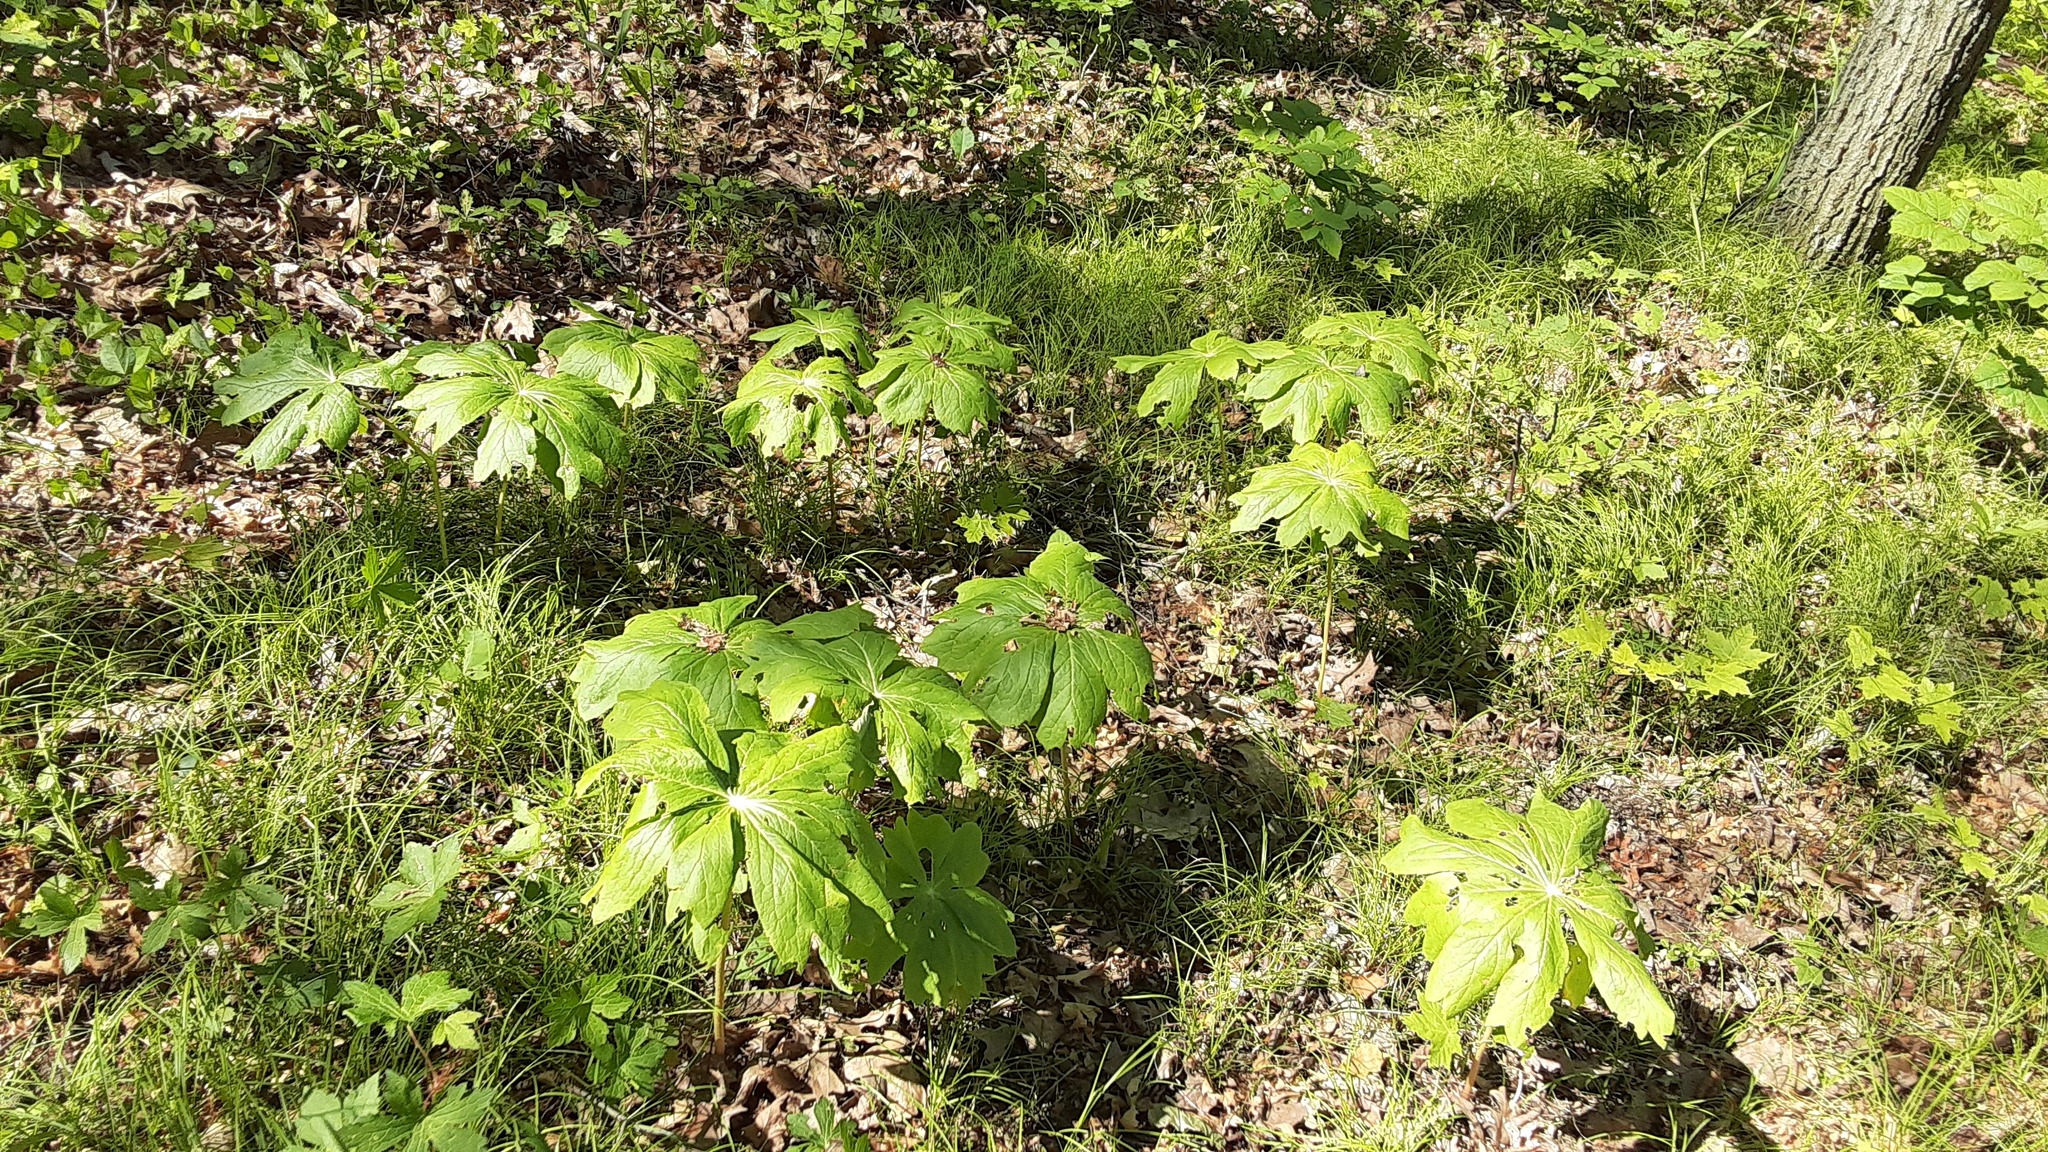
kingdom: Plantae
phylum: Tracheophyta
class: Magnoliopsida
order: Ranunculales
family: Berberidaceae
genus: Podophyllum
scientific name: Podophyllum peltatum
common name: Wild mandrake
